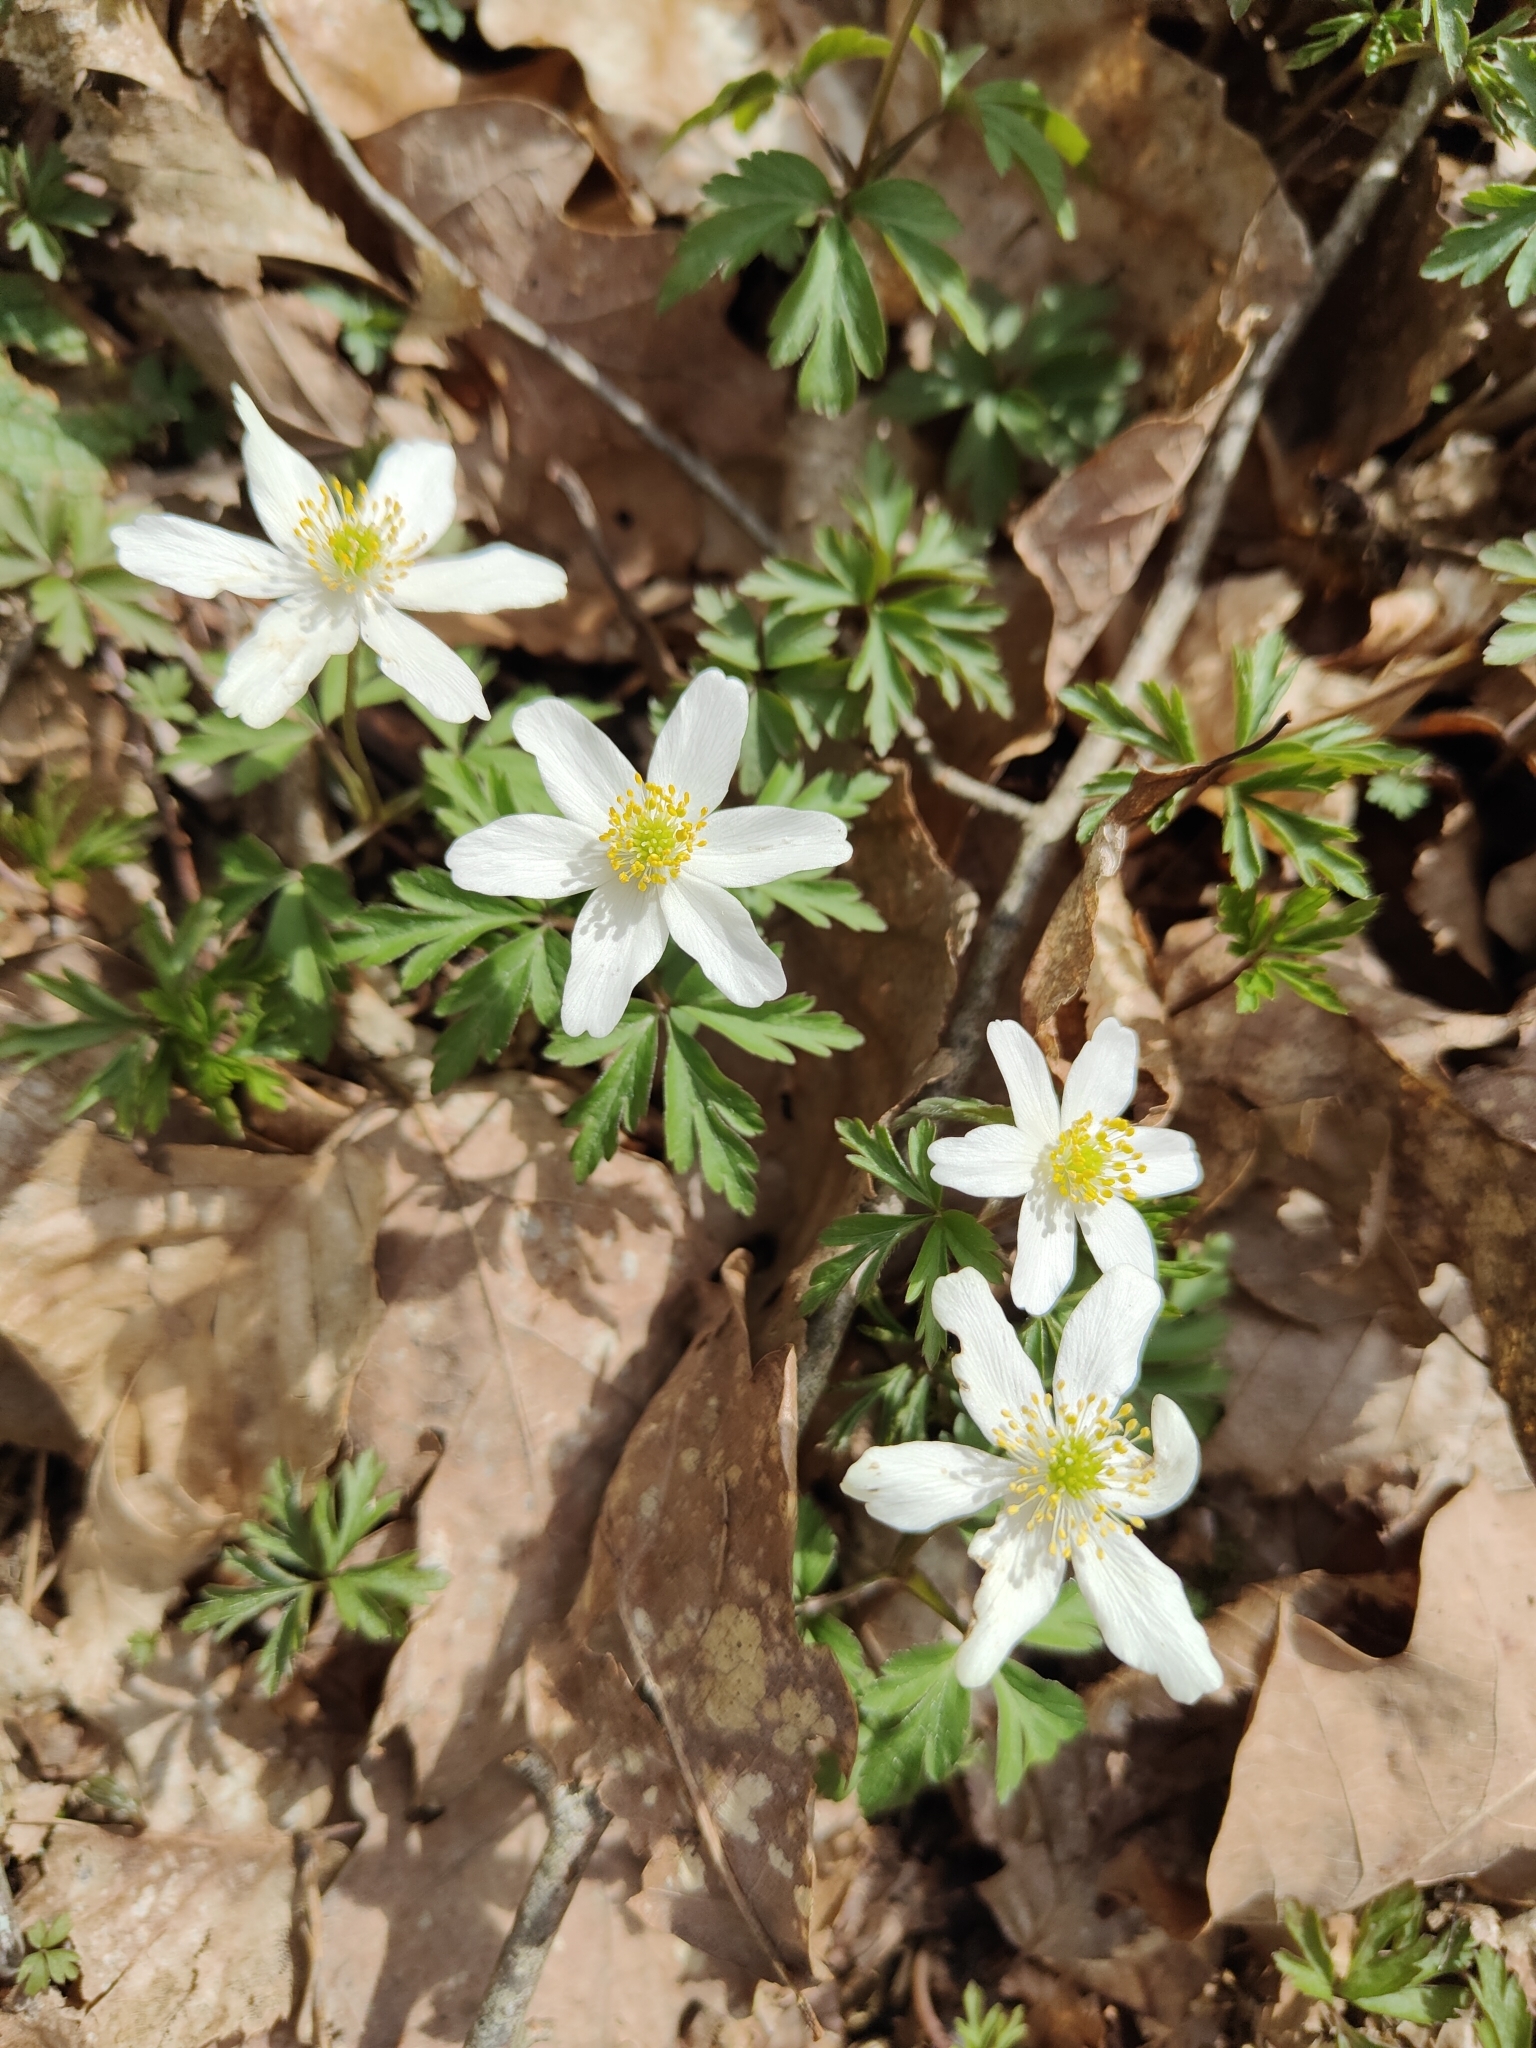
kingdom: Plantae
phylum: Tracheophyta
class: Magnoliopsida
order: Ranunculales
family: Ranunculaceae
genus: Anemone
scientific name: Anemone nemorosa
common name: Wood anemone
